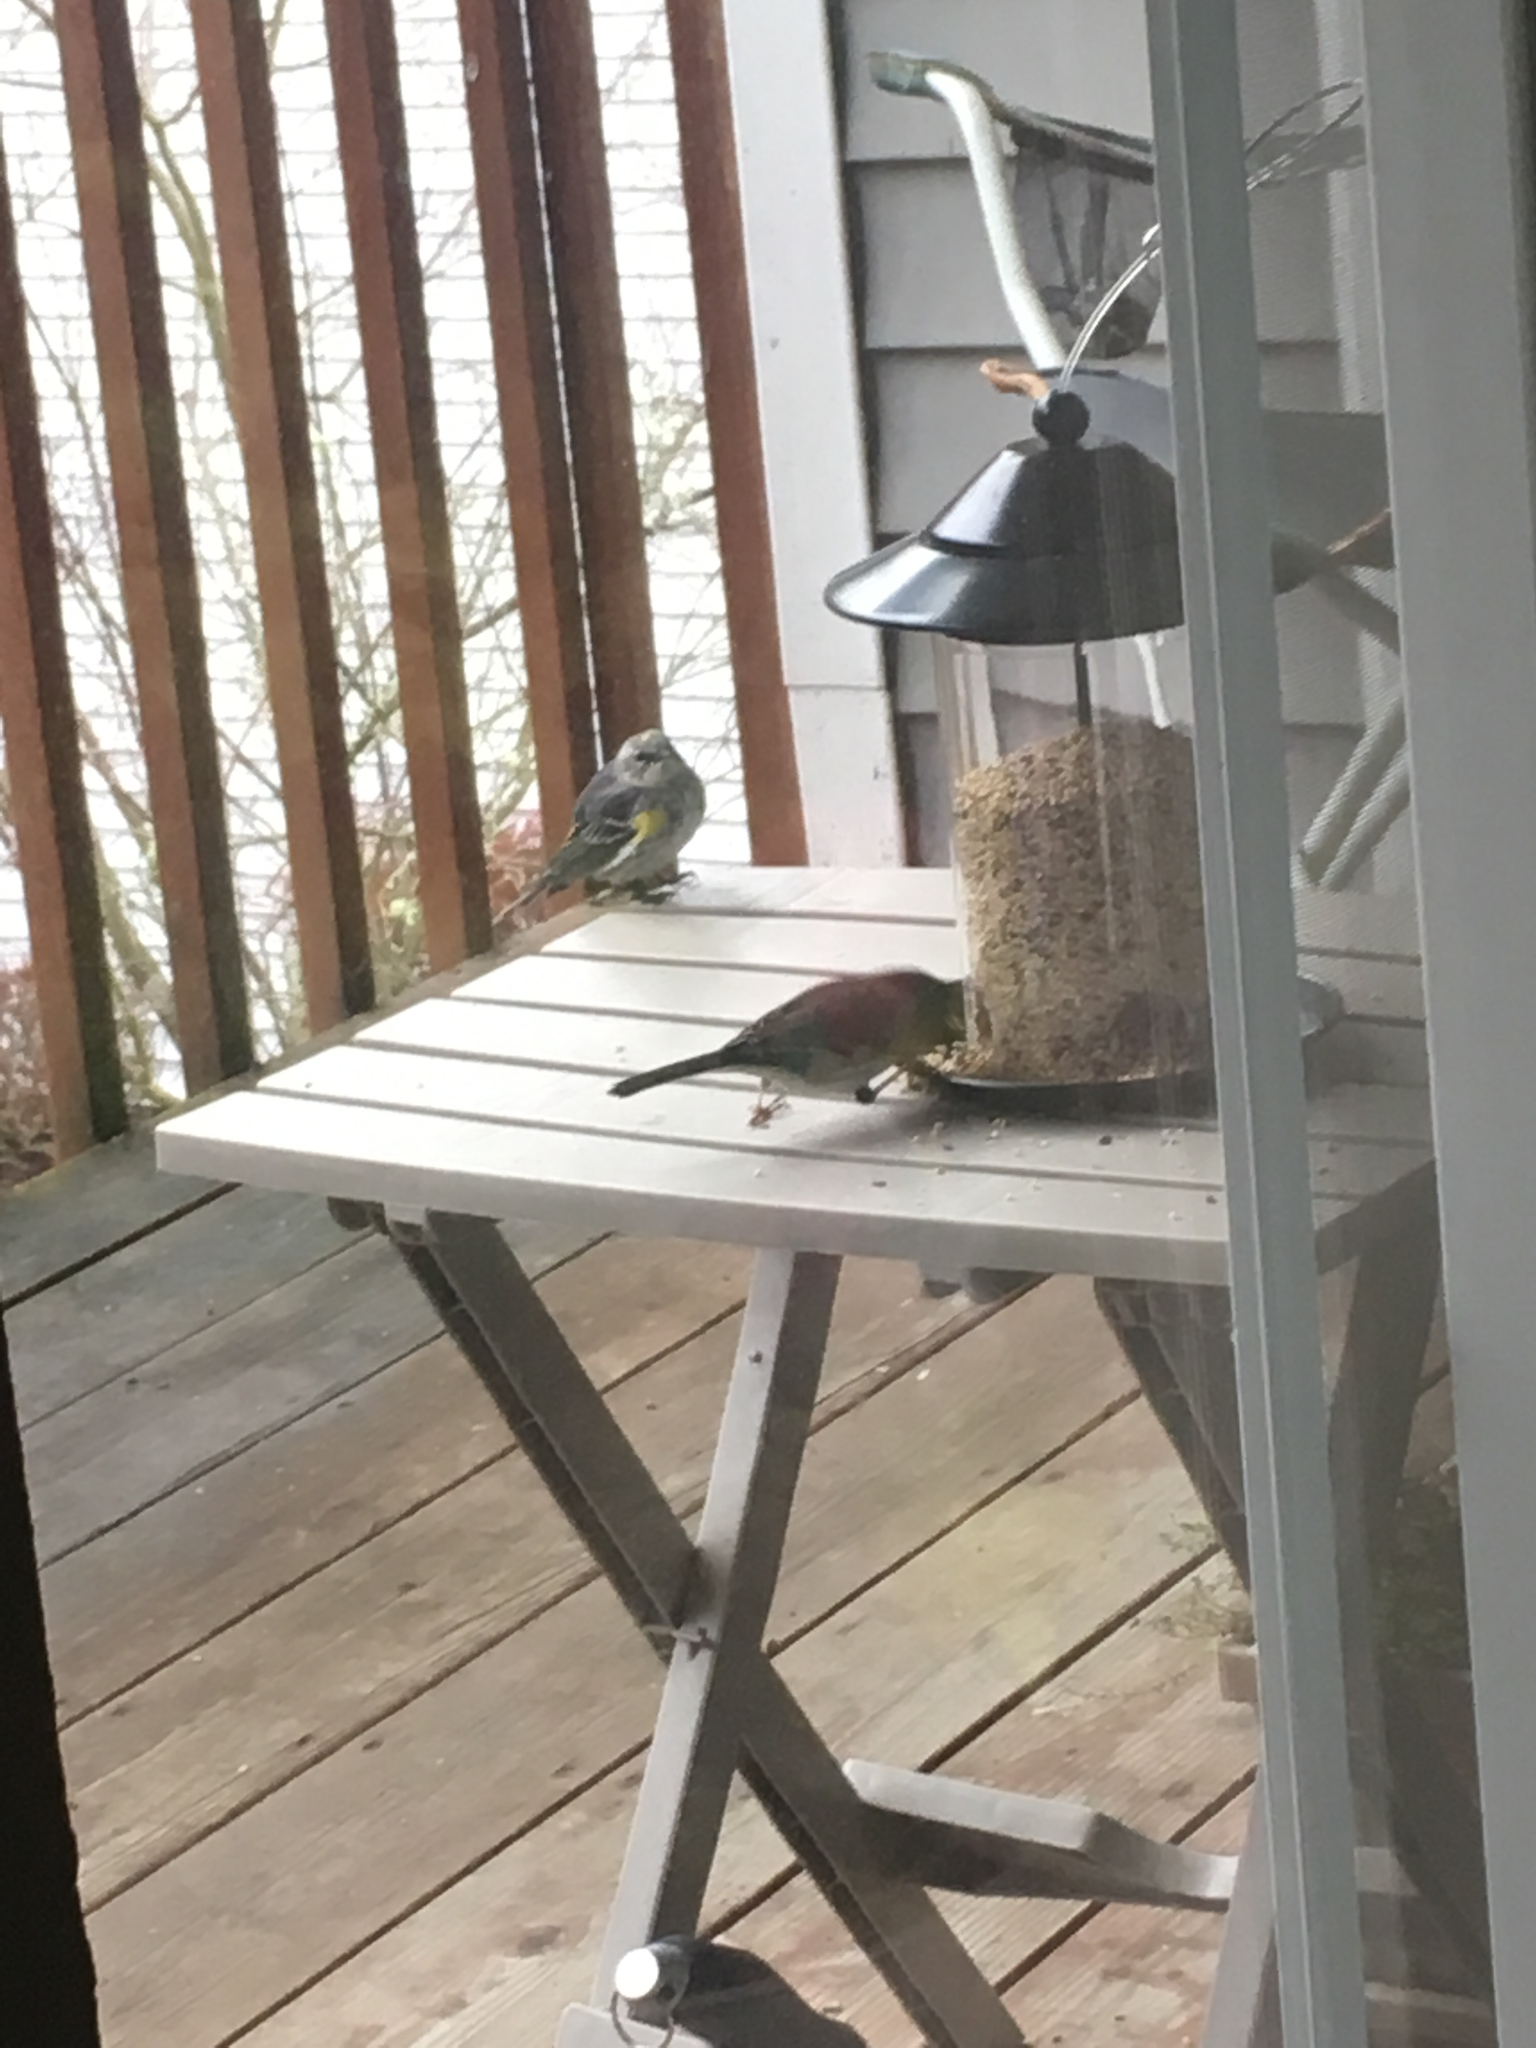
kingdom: Animalia
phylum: Chordata
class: Aves
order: Passeriformes
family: Parulidae
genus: Setophaga
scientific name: Setophaga coronata
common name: Myrtle warbler
